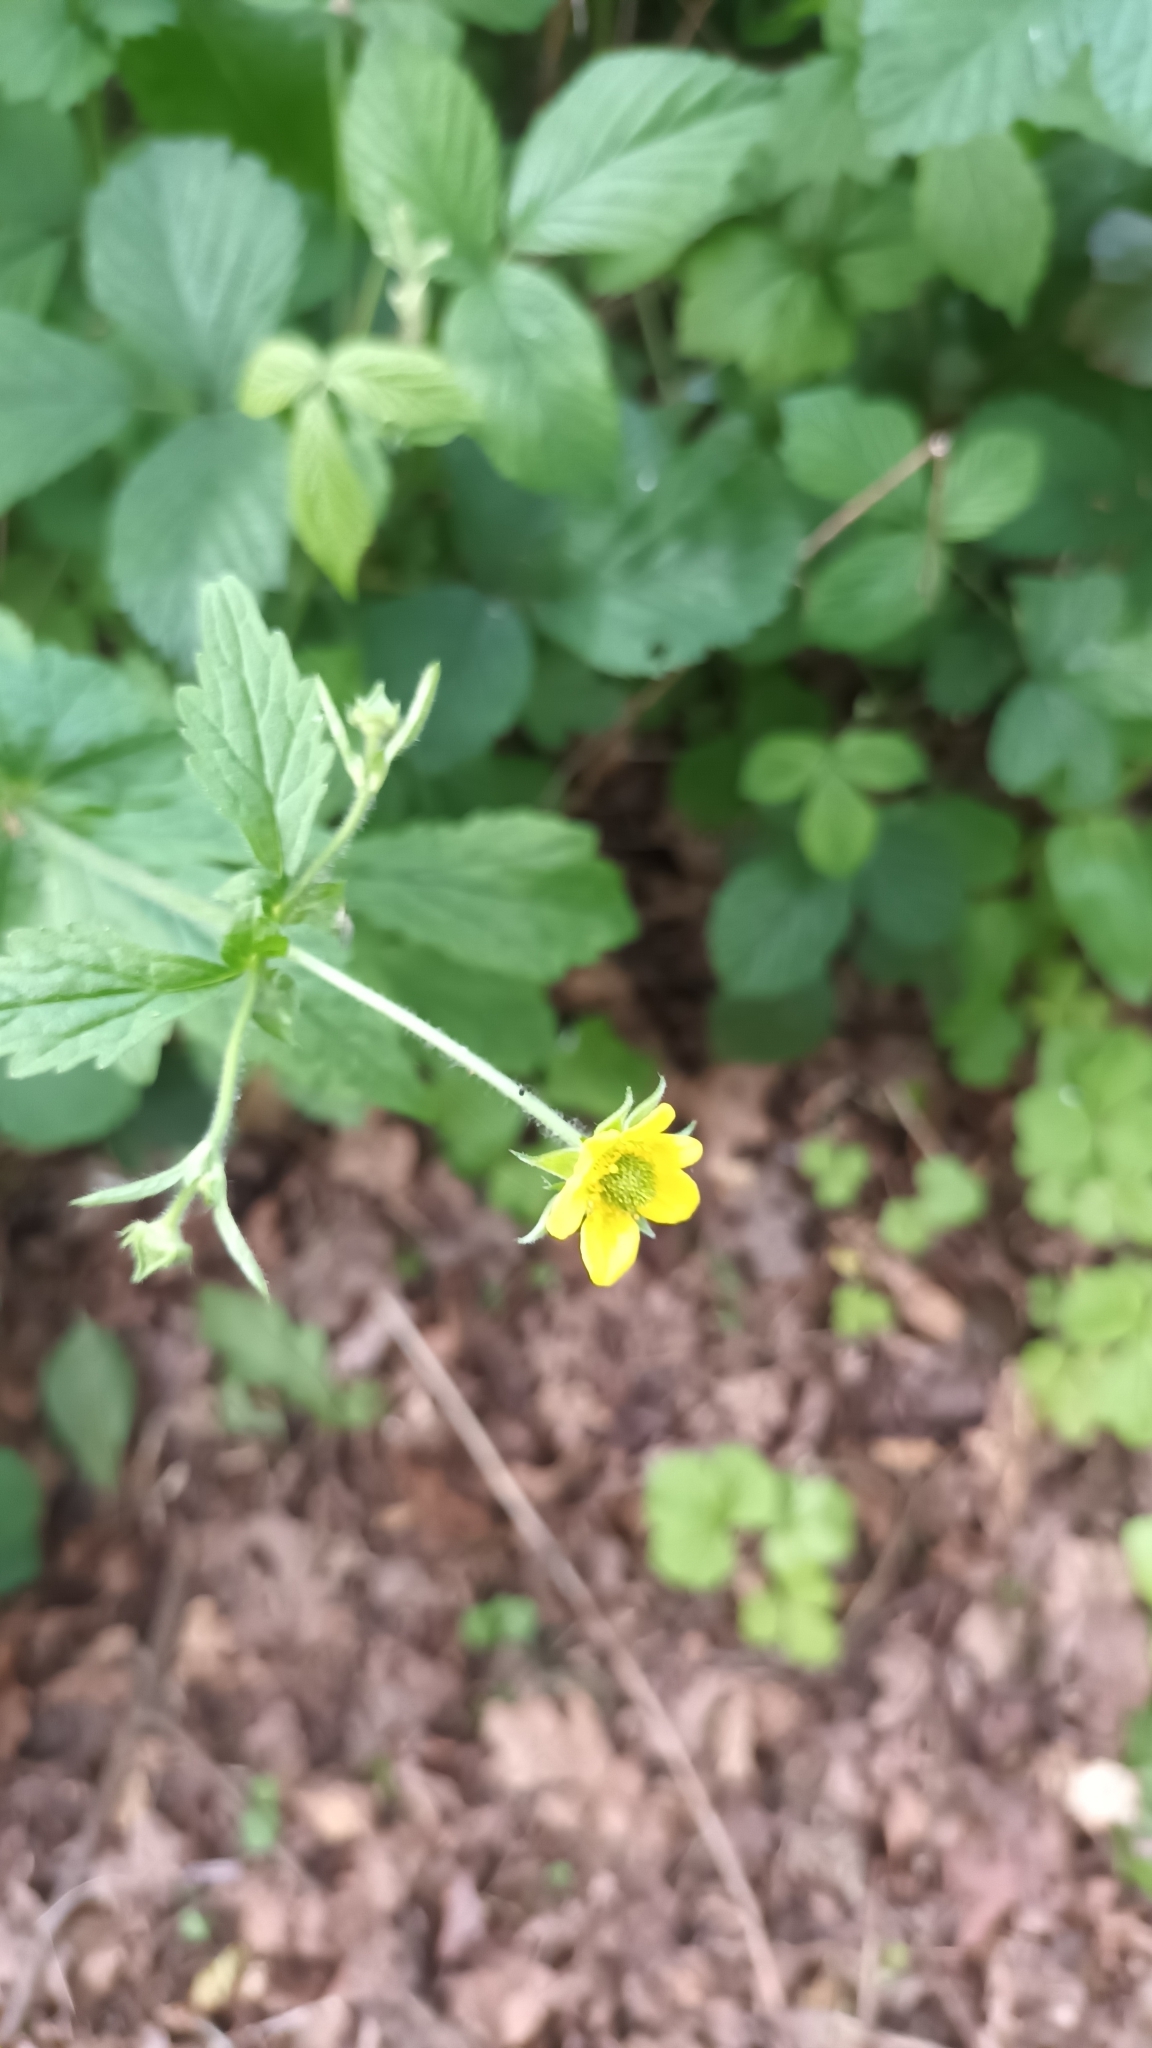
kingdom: Plantae
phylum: Tracheophyta
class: Magnoliopsida
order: Rosales
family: Rosaceae
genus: Geum
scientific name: Geum urbanum
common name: Wood avens
